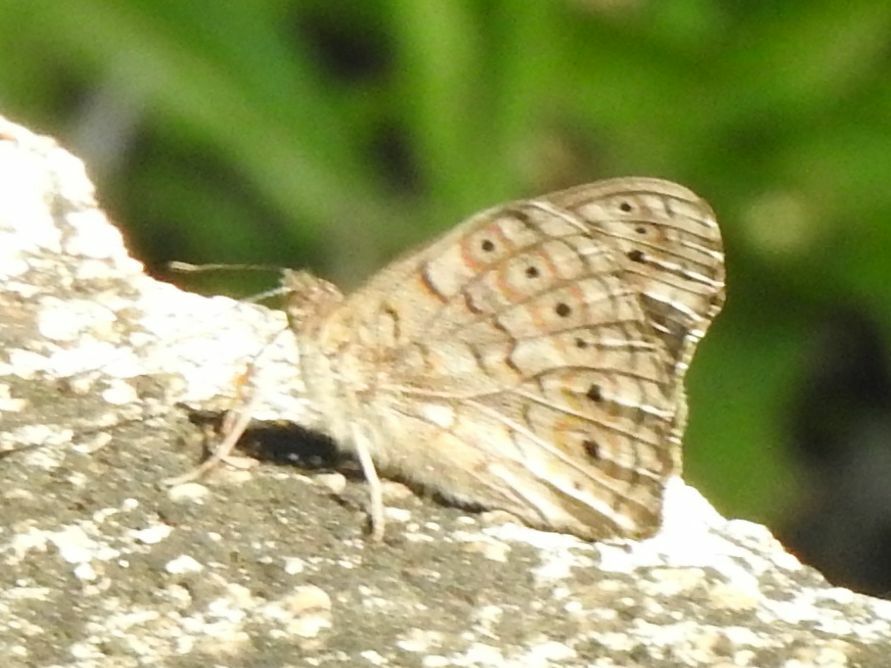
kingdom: Animalia
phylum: Arthropoda
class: Insecta
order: Lepidoptera
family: Nymphalidae
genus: Asterope
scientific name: Asterope boisduvali
